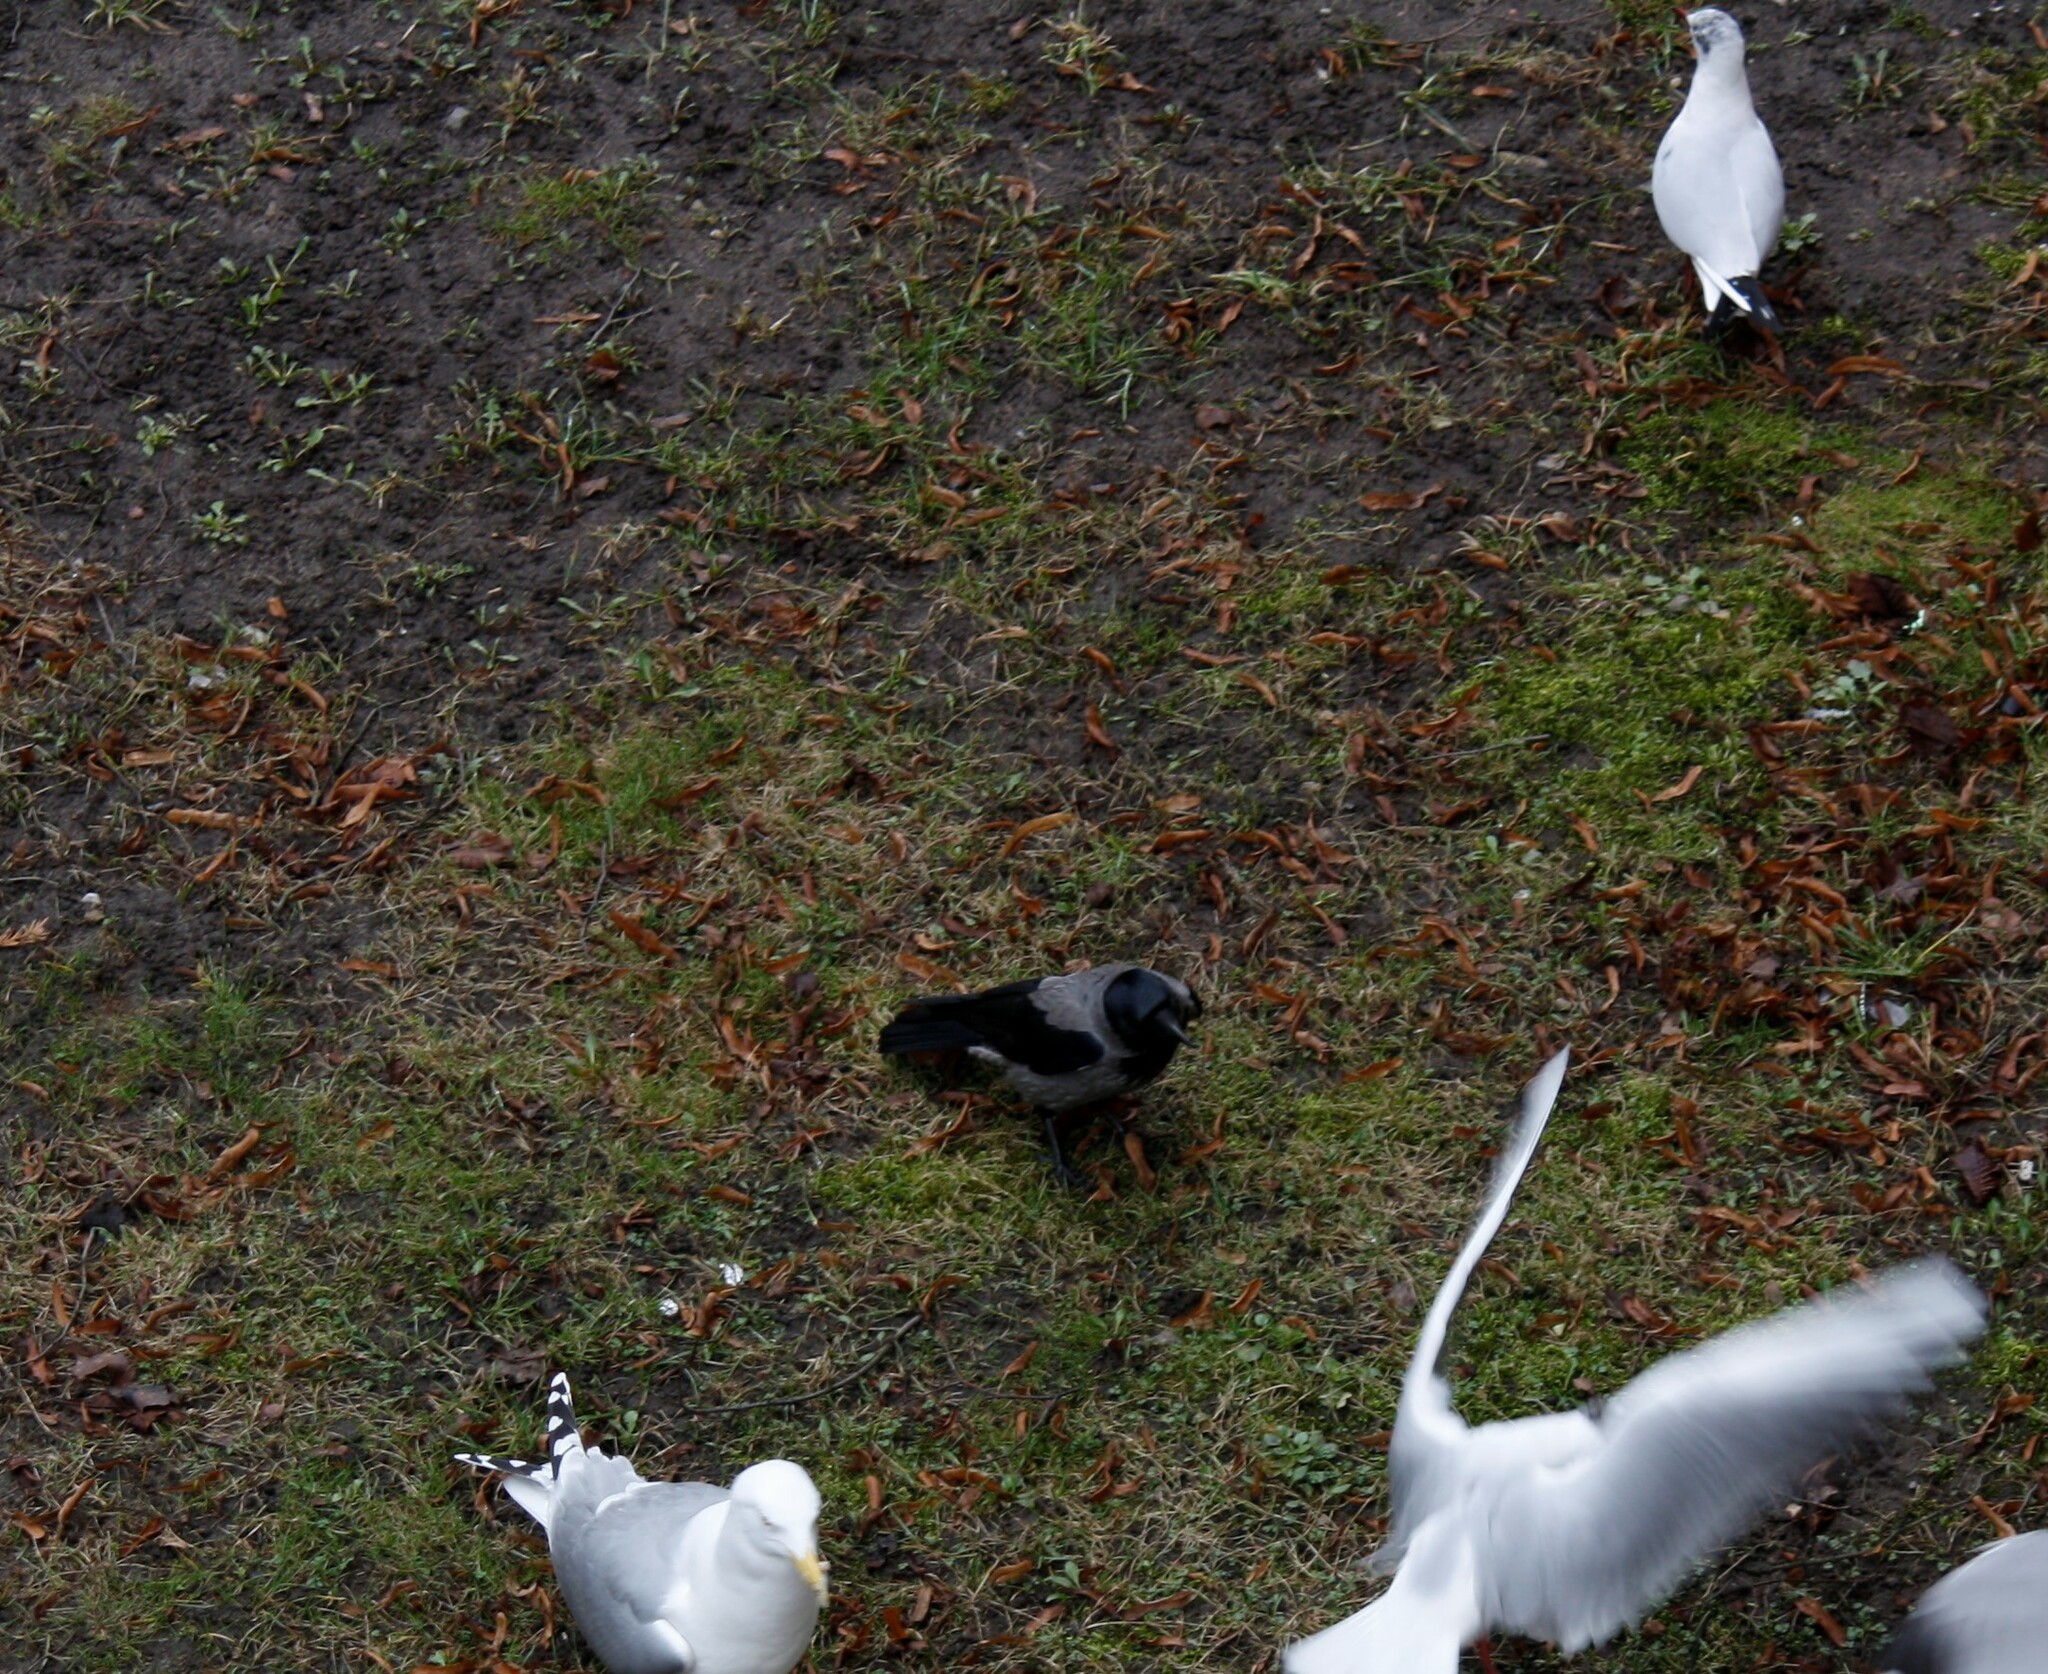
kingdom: Animalia
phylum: Chordata
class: Aves
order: Passeriformes
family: Corvidae
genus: Corvus
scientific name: Corvus cornix
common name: Hooded crow
